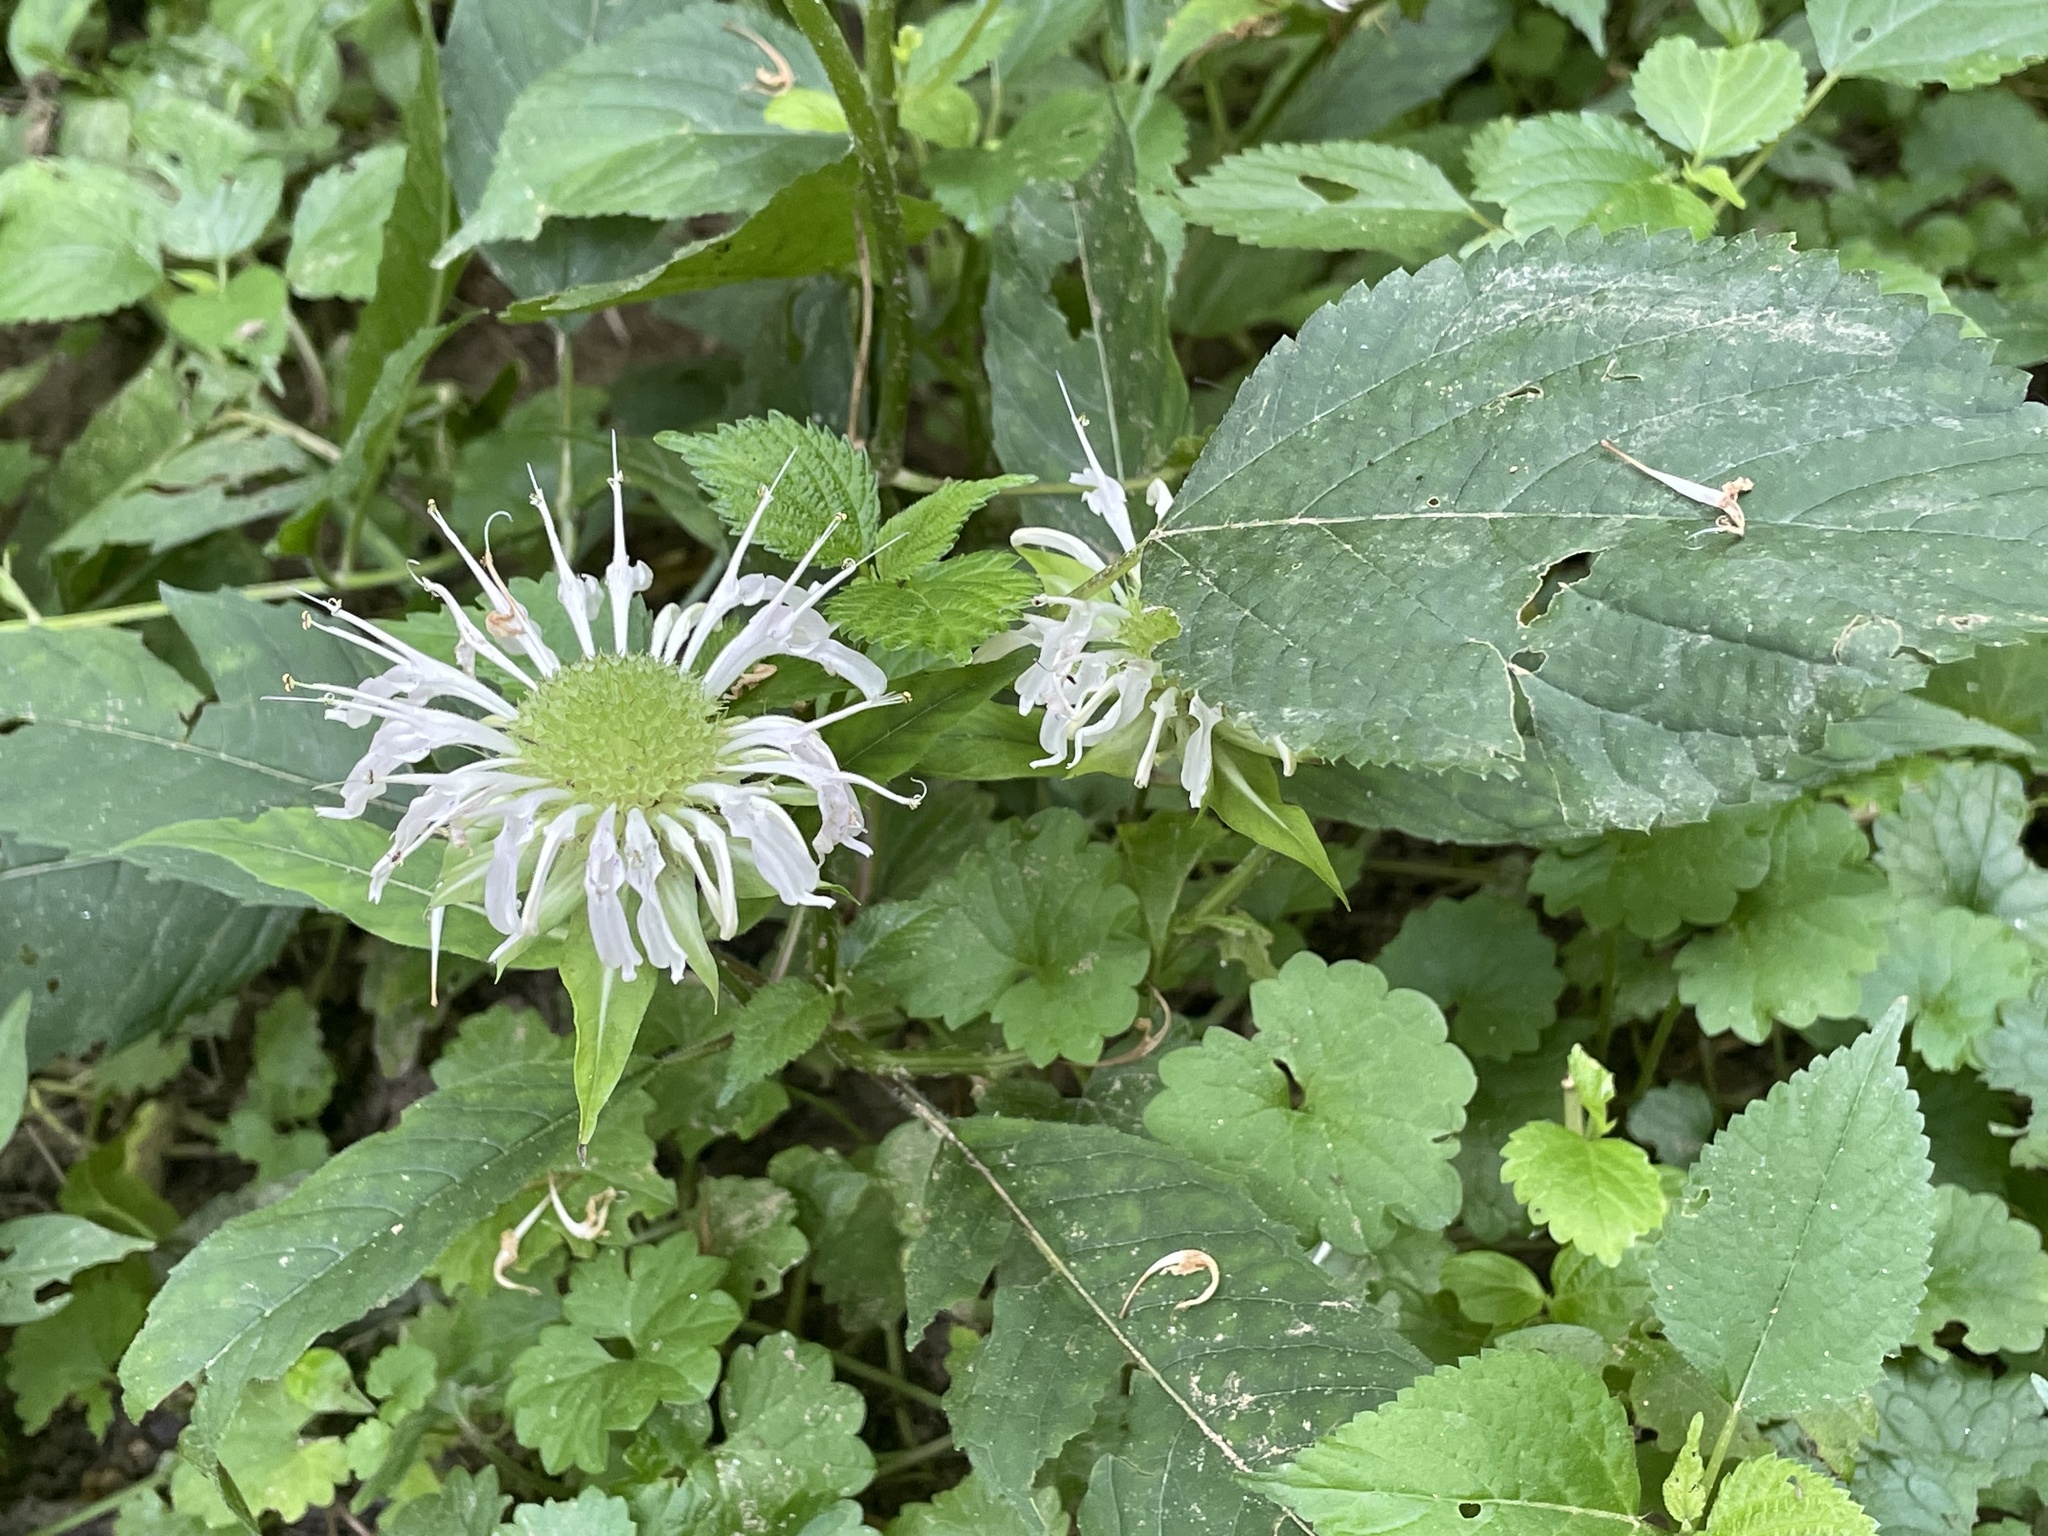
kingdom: Plantae
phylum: Tracheophyta
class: Magnoliopsida
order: Lamiales
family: Lamiaceae
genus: Monarda
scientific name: Monarda clinopodia
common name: Basil beebalm
